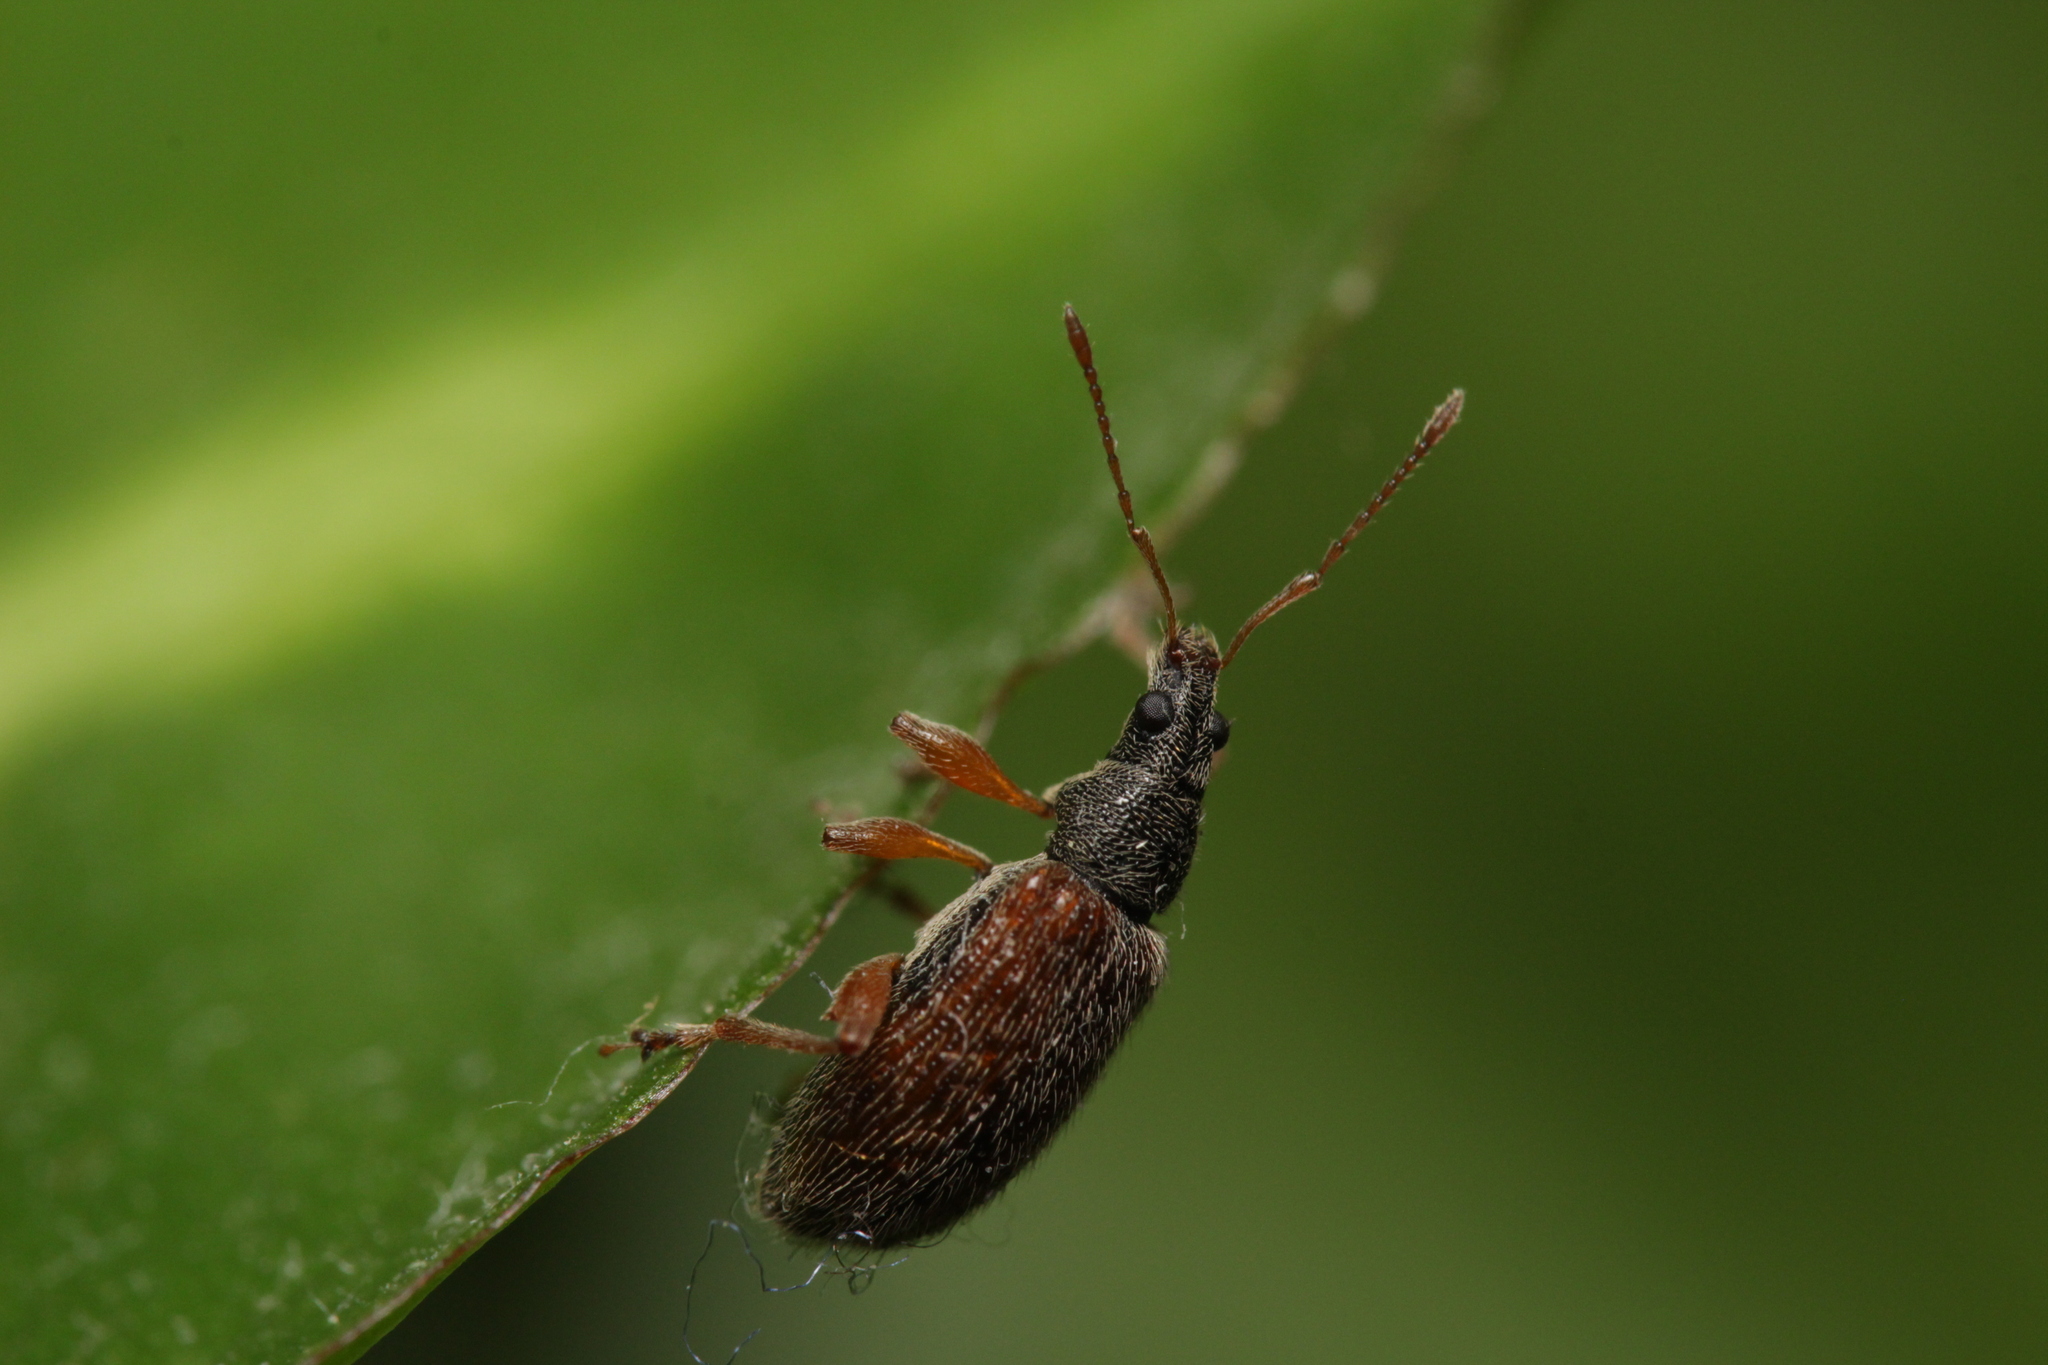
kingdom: Animalia
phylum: Arthropoda
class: Insecta
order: Coleoptera
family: Curculionidae
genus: Phyllobius
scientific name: Phyllobius oblongus
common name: Brown leaf weevil
